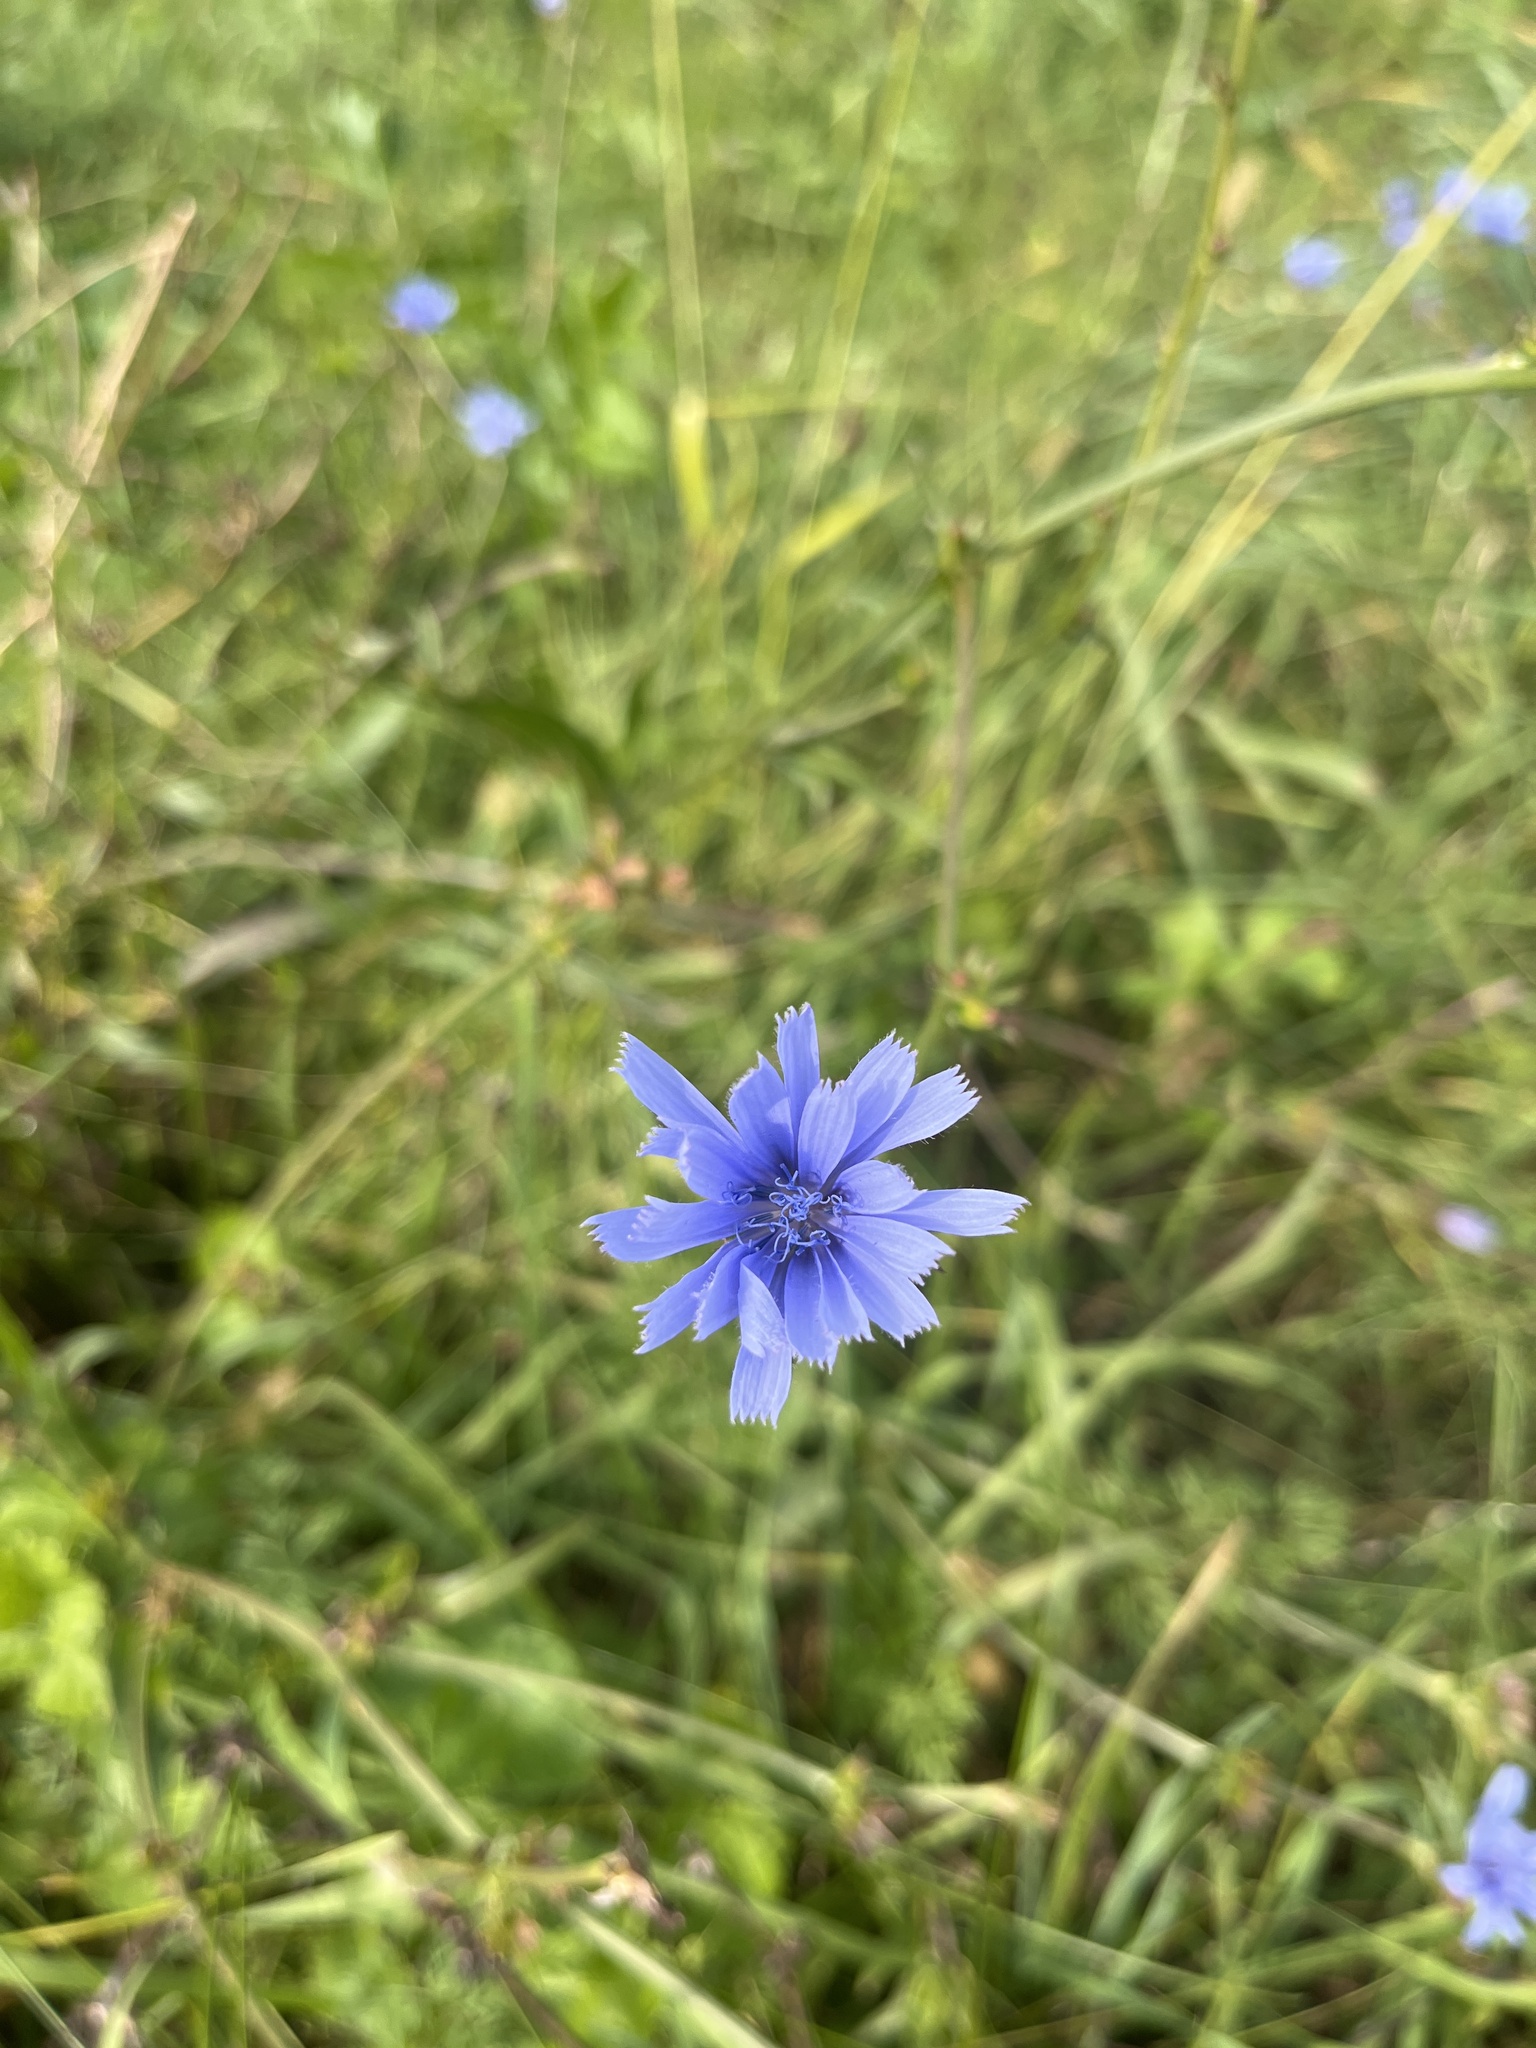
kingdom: Plantae
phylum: Tracheophyta
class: Magnoliopsida
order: Asterales
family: Asteraceae
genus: Cichorium
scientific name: Cichorium intybus
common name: Chicory
